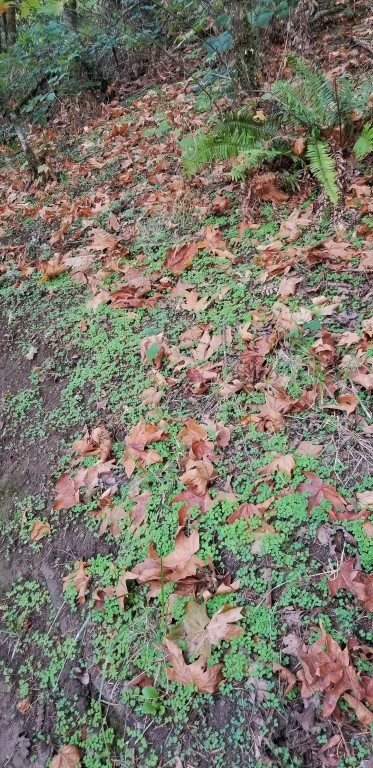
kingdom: Plantae
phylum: Tracheophyta
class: Magnoliopsida
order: Geraniales
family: Geraniaceae
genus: Geranium
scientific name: Geranium lucidum
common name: Shining crane's-bill
